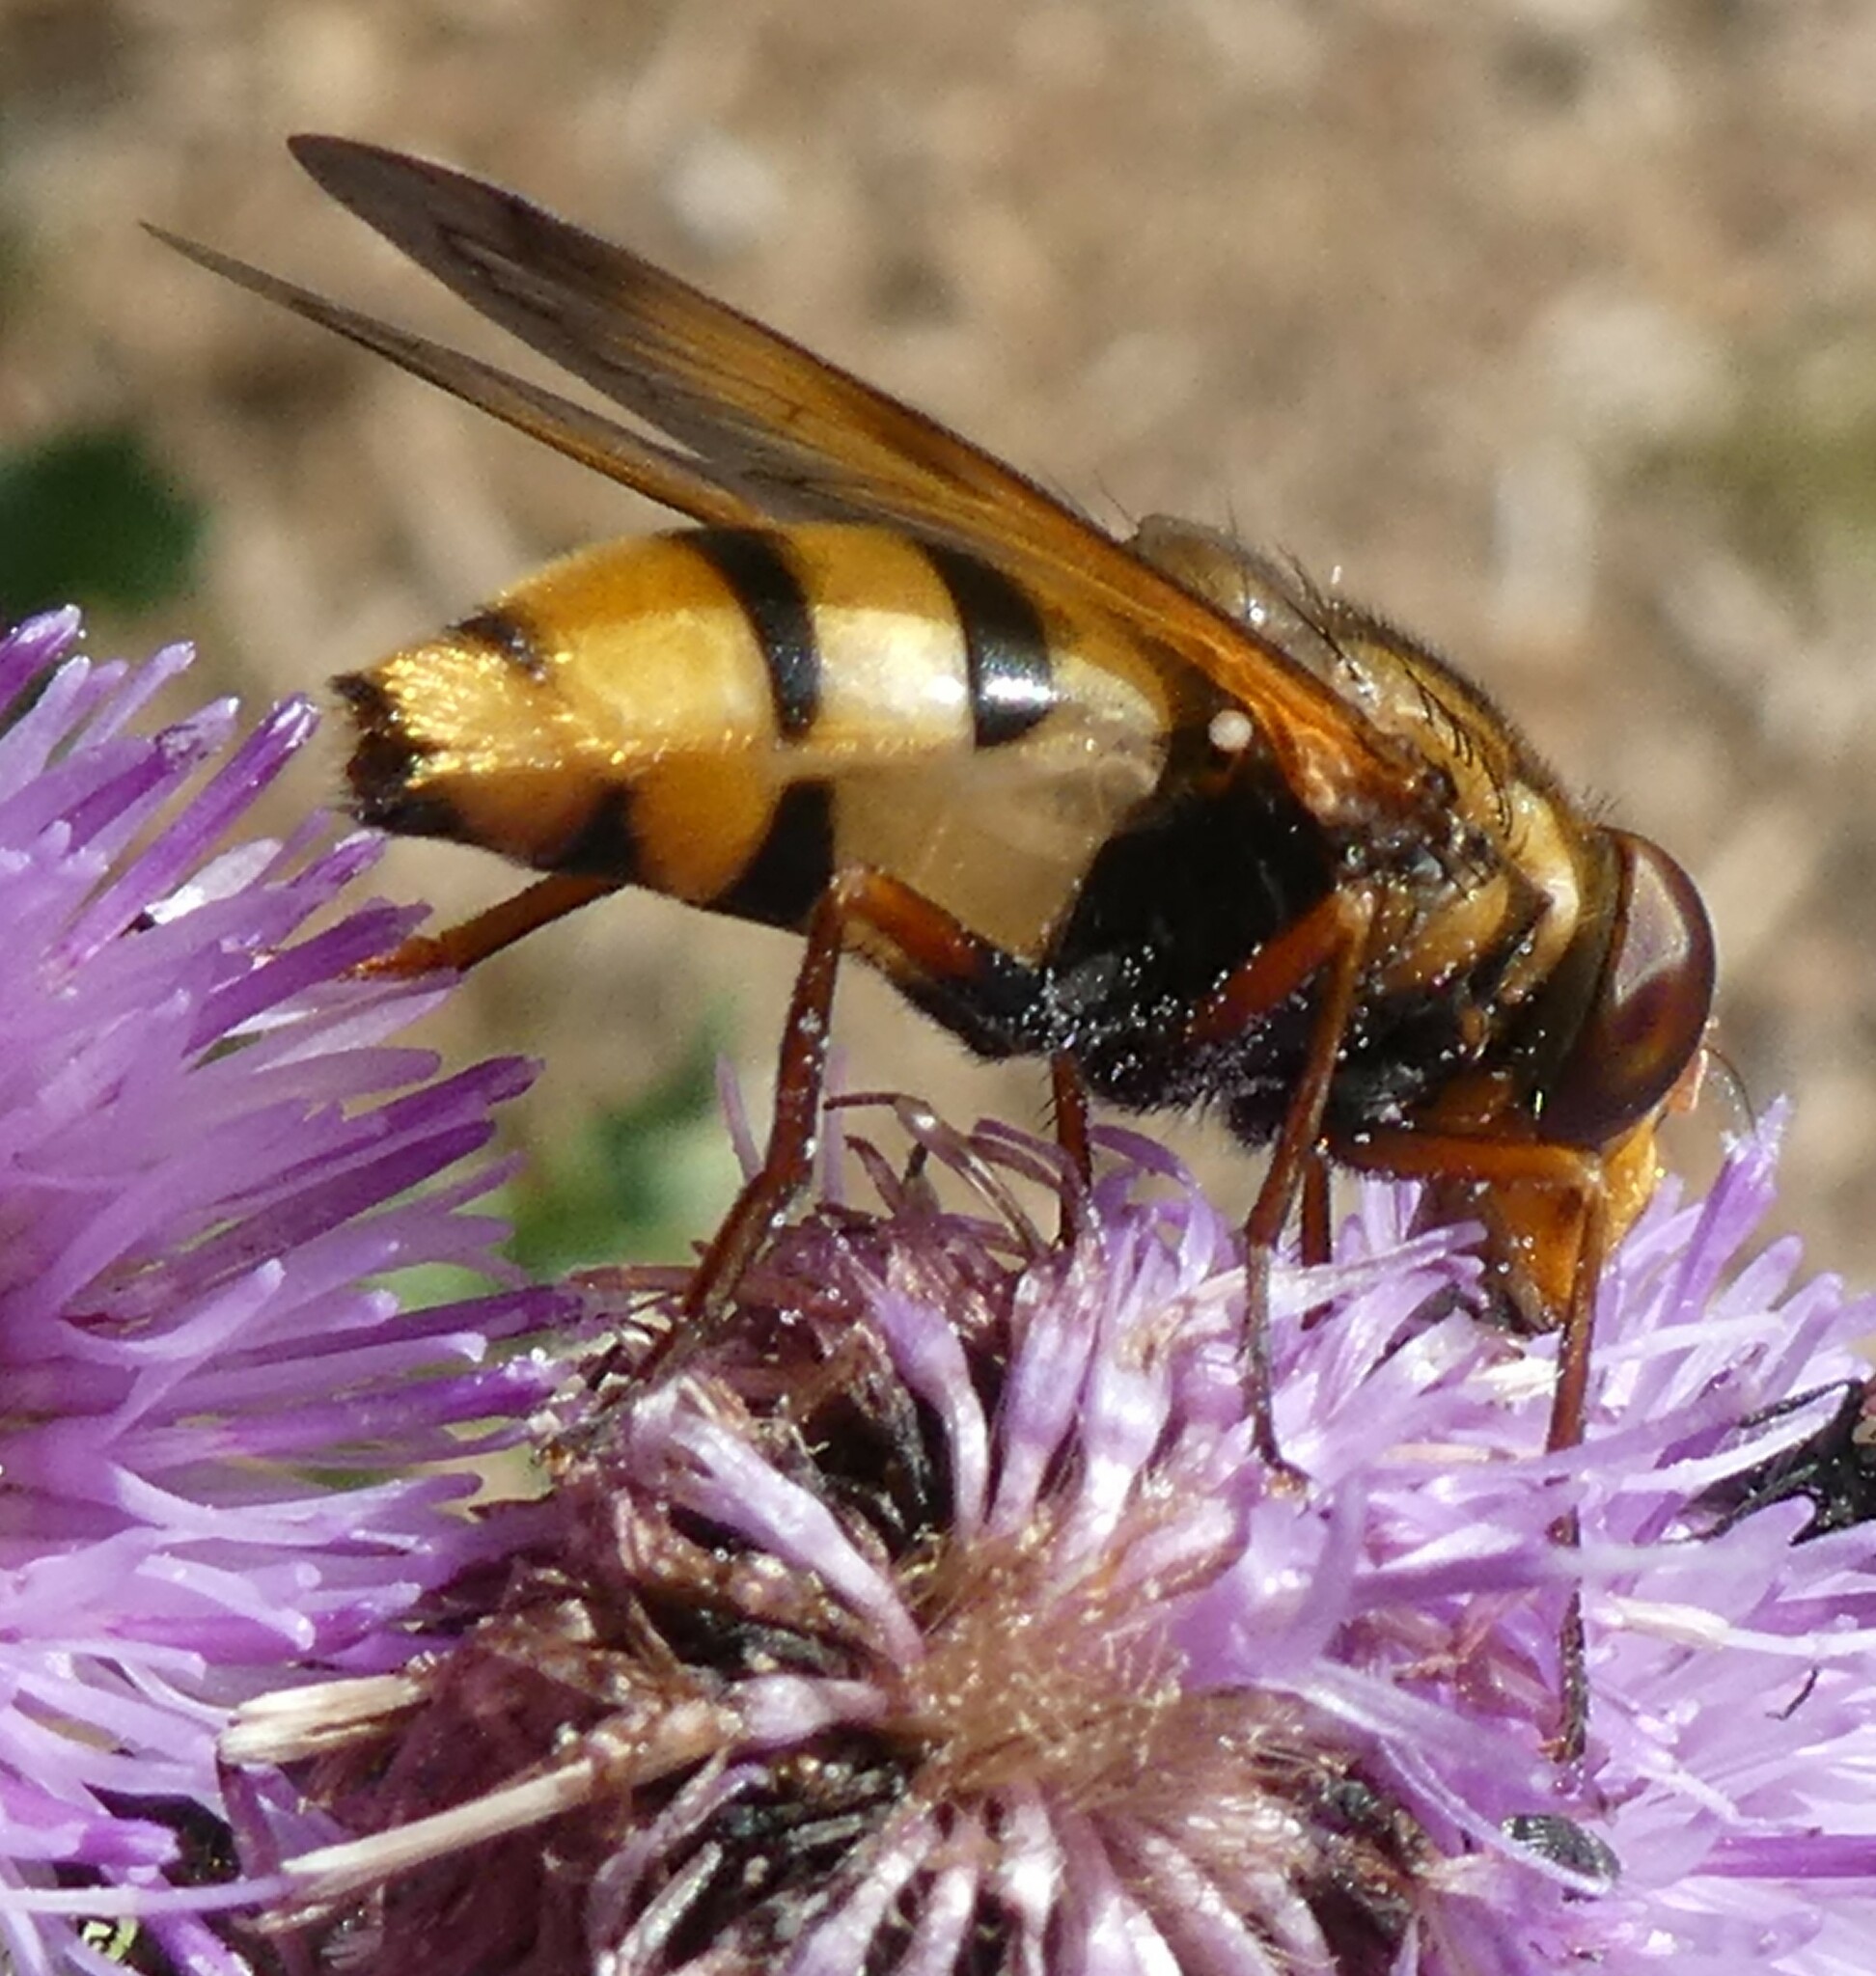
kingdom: Animalia
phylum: Arthropoda
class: Insecta
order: Diptera
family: Syrphidae
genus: Volucella
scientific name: Volucella inanis
